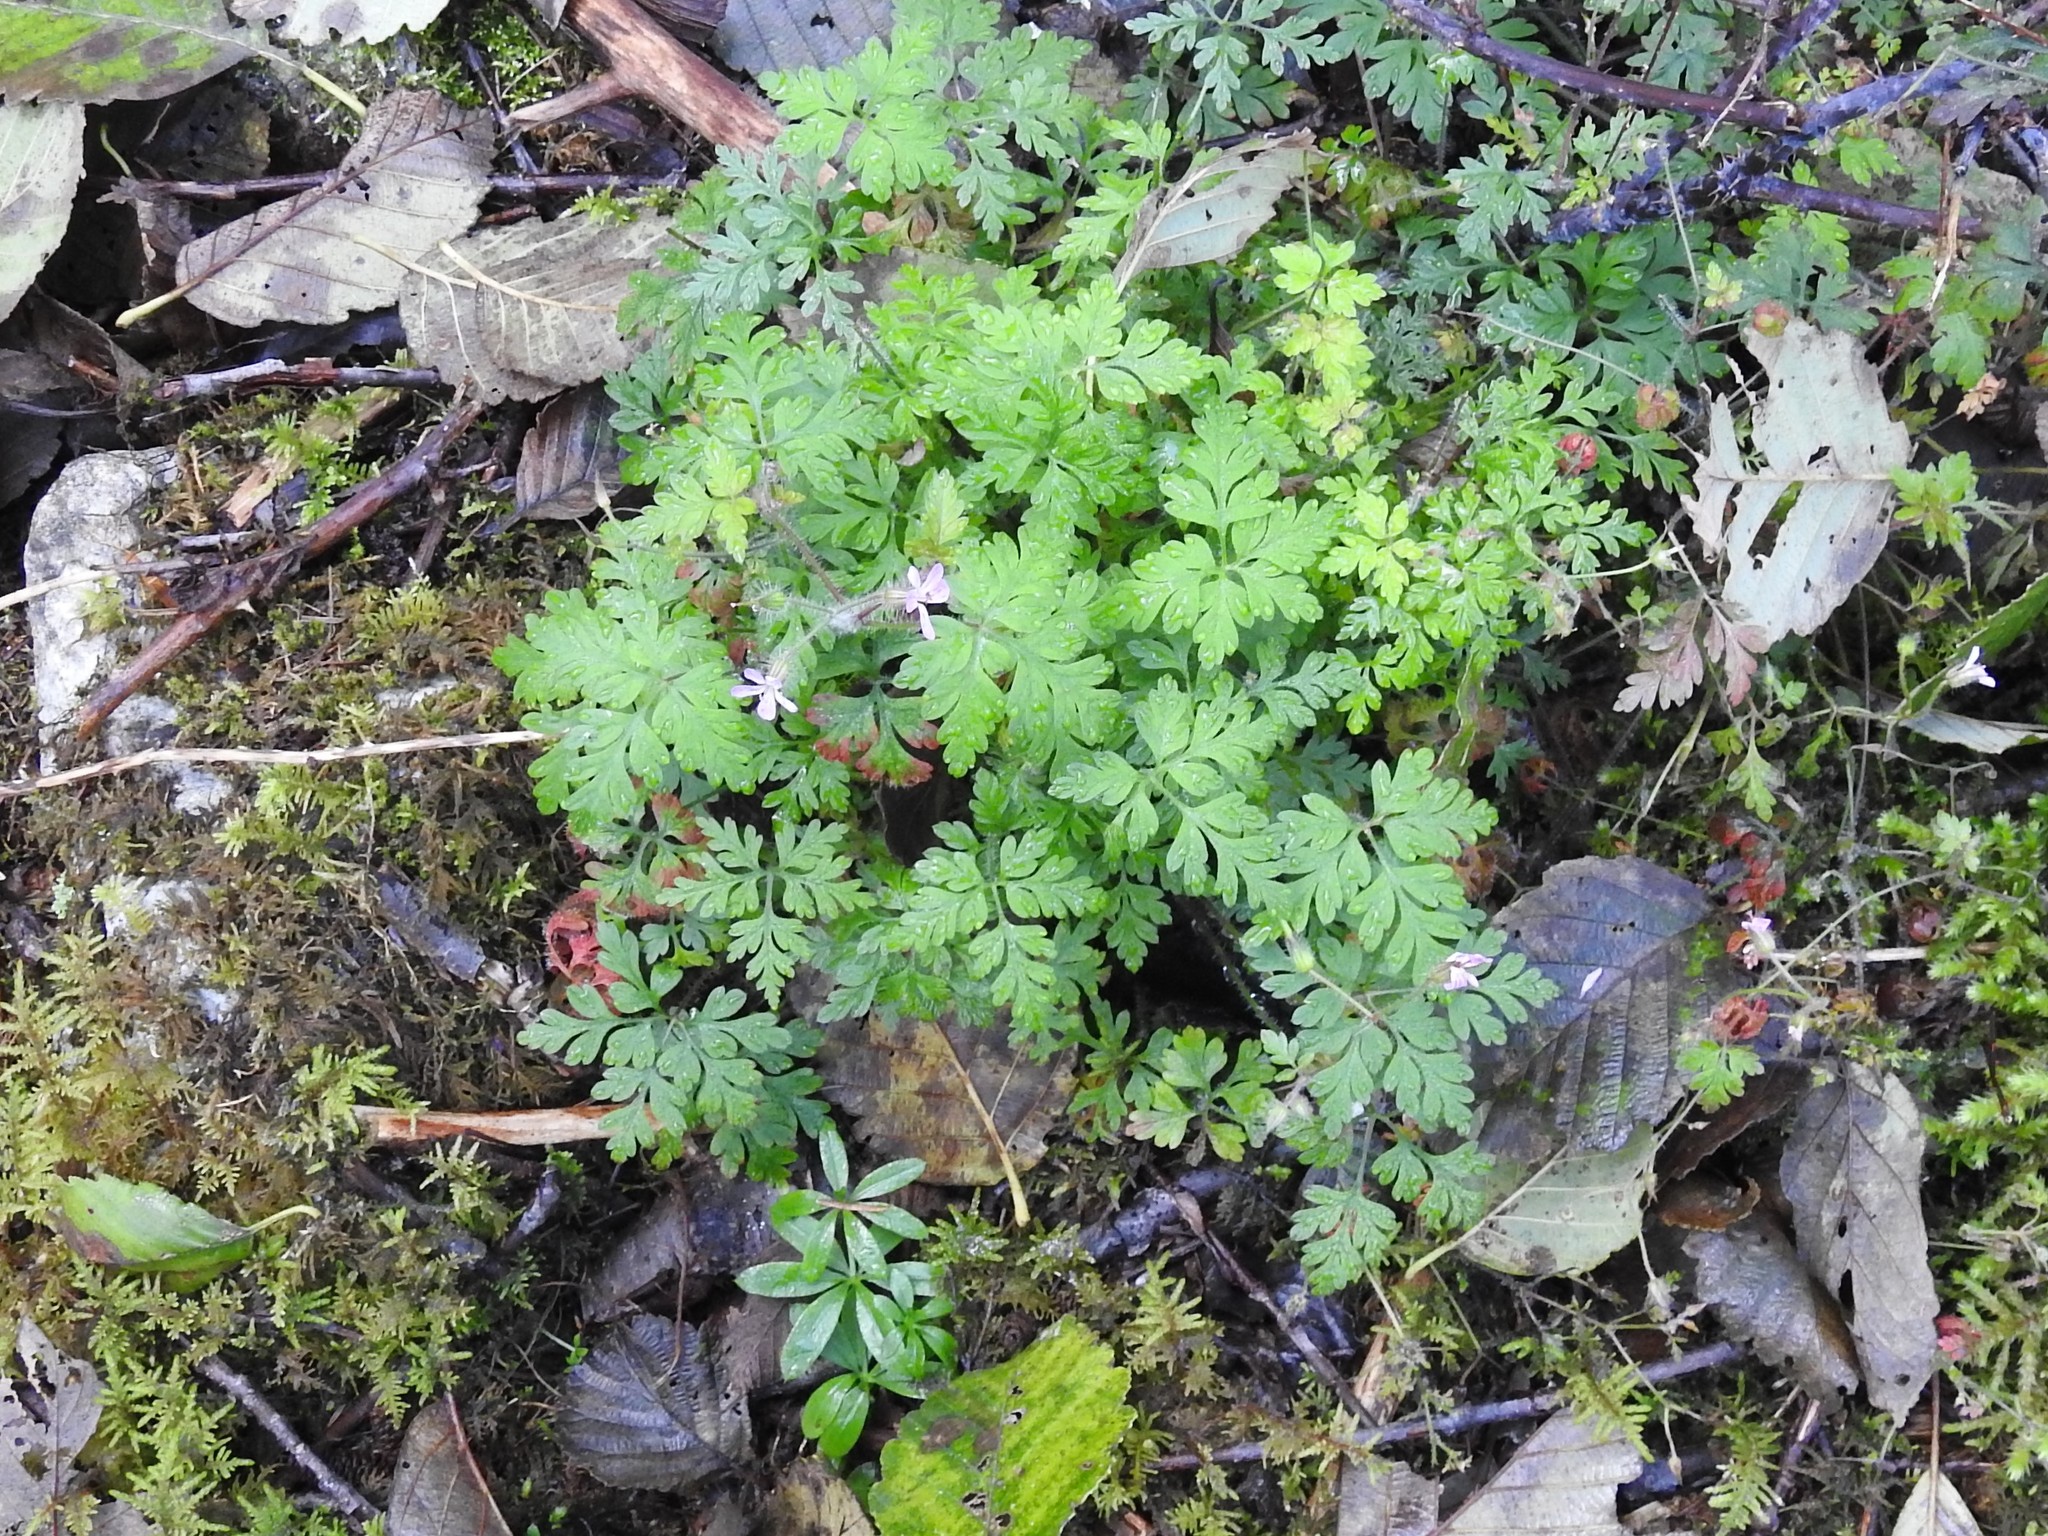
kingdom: Plantae
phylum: Tracheophyta
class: Magnoliopsida
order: Geraniales
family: Geraniaceae
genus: Geranium
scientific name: Geranium robertianum
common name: Herb-robert
